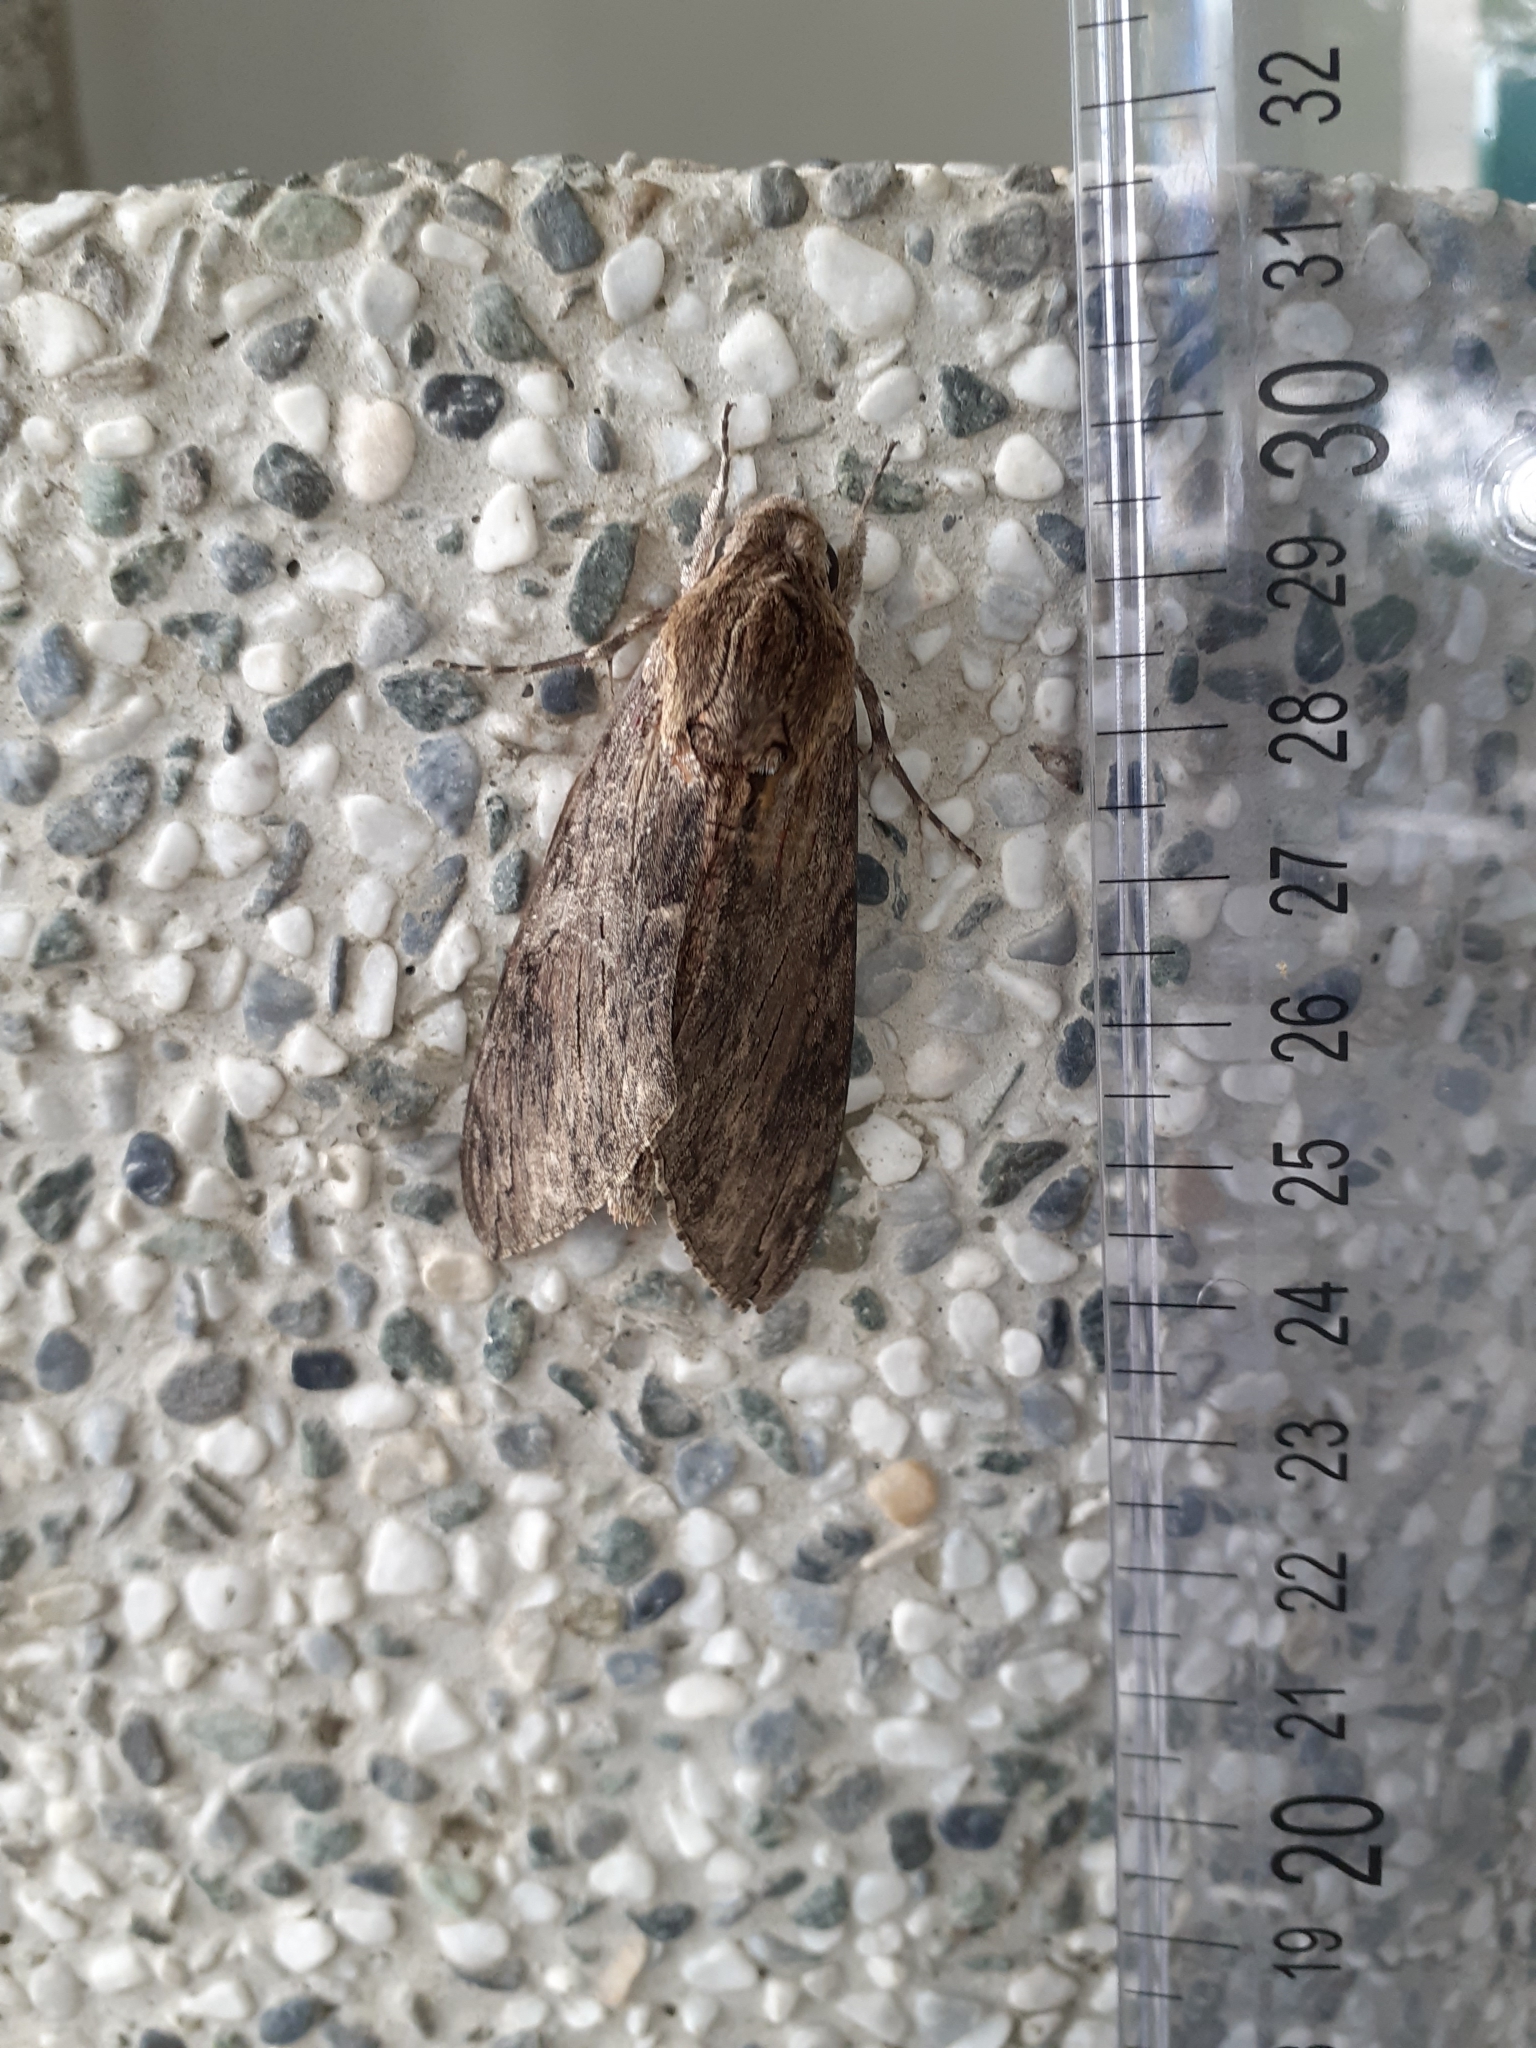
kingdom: Animalia
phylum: Arthropoda
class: Insecta
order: Lepidoptera
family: Sphingidae
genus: Agrius
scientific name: Agrius convolvuli
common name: Convolvulus hawkmoth
